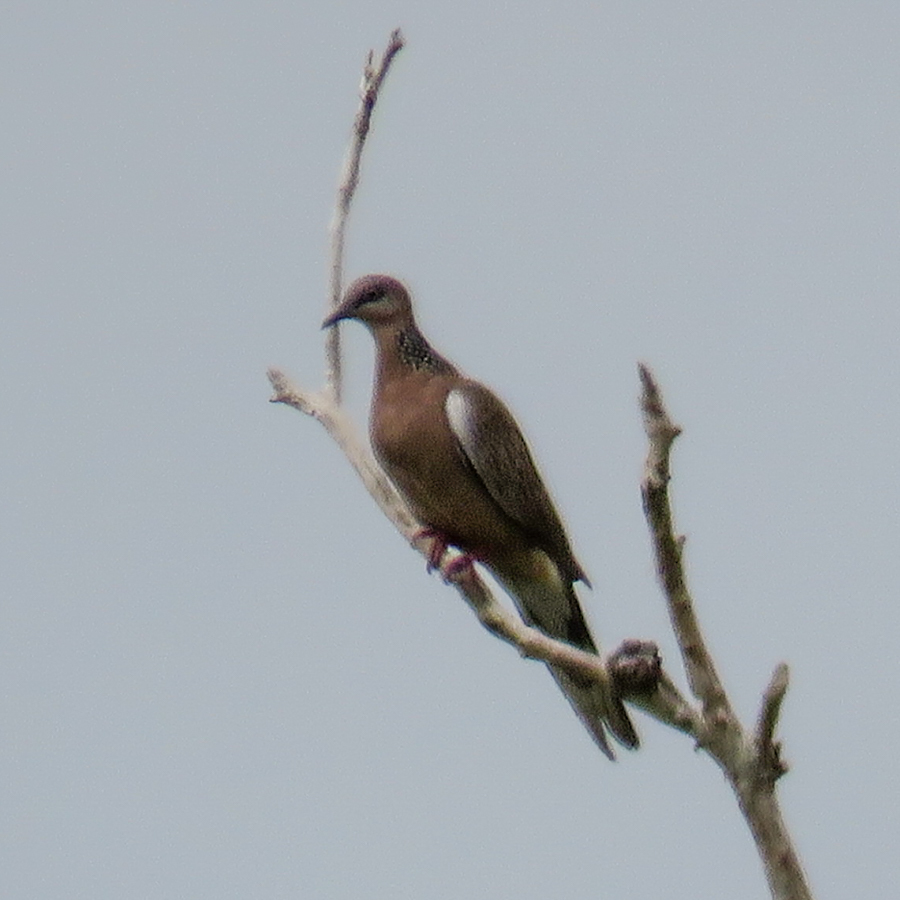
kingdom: Animalia
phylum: Chordata
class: Aves
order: Columbiformes
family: Columbidae
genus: Spilopelia
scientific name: Spilopelia chinensis
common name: Spotted dove
